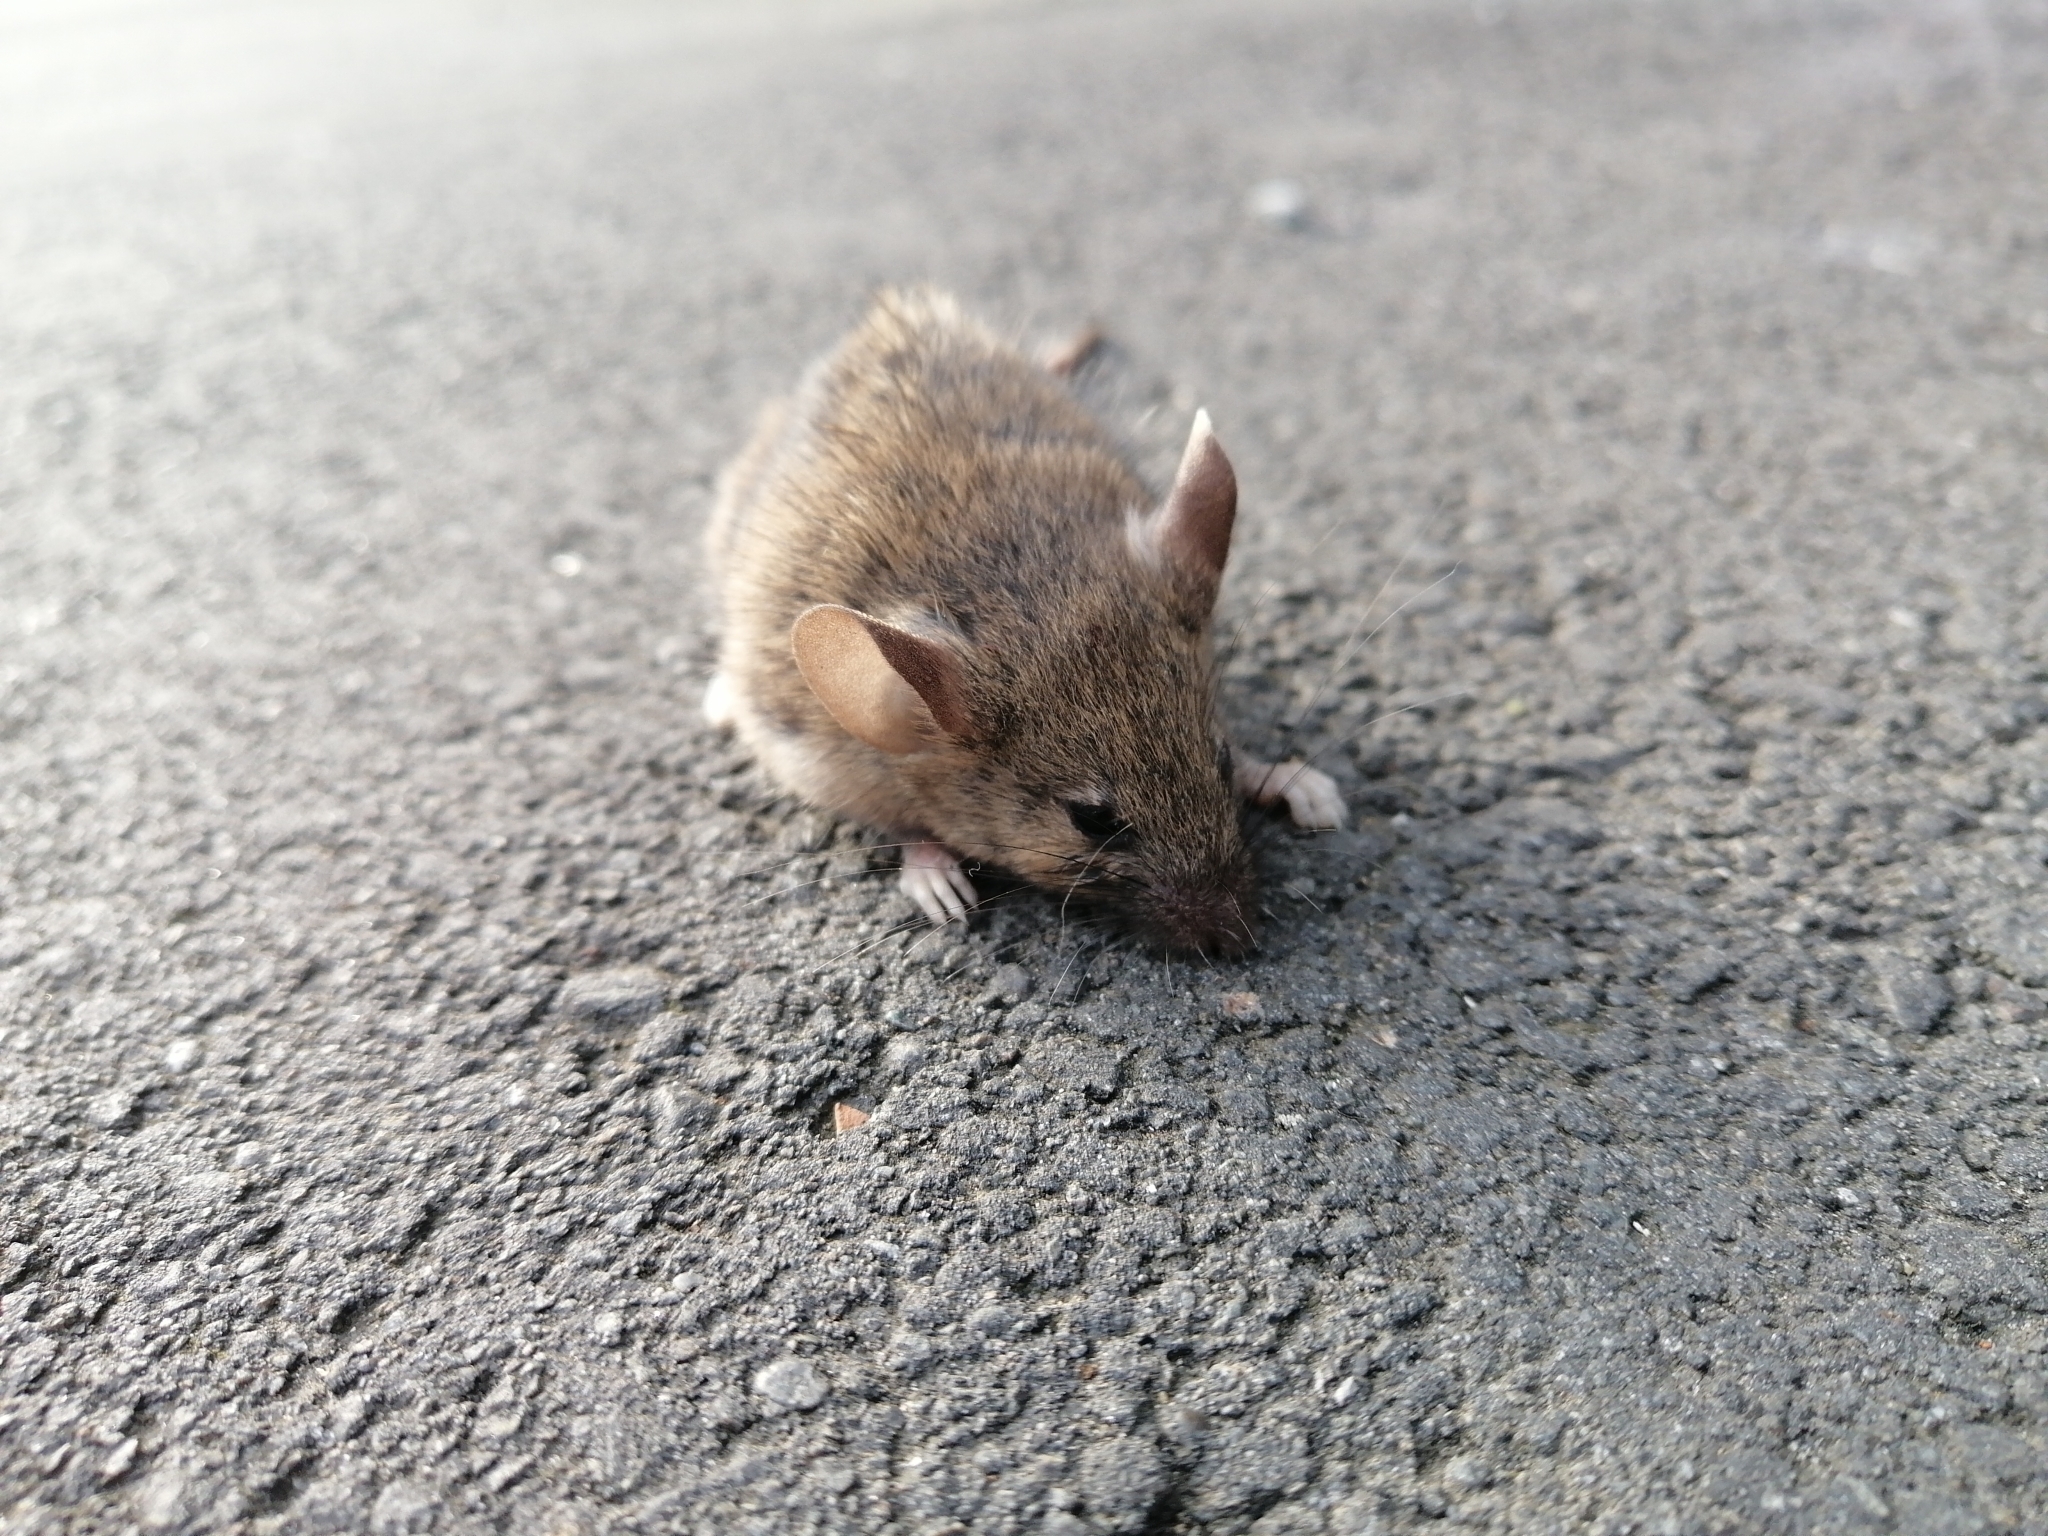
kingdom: Animalia
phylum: Chordata
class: Mammalia
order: Rodentia
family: Muridae
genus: Mus
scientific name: Mus musculus
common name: House mouse
